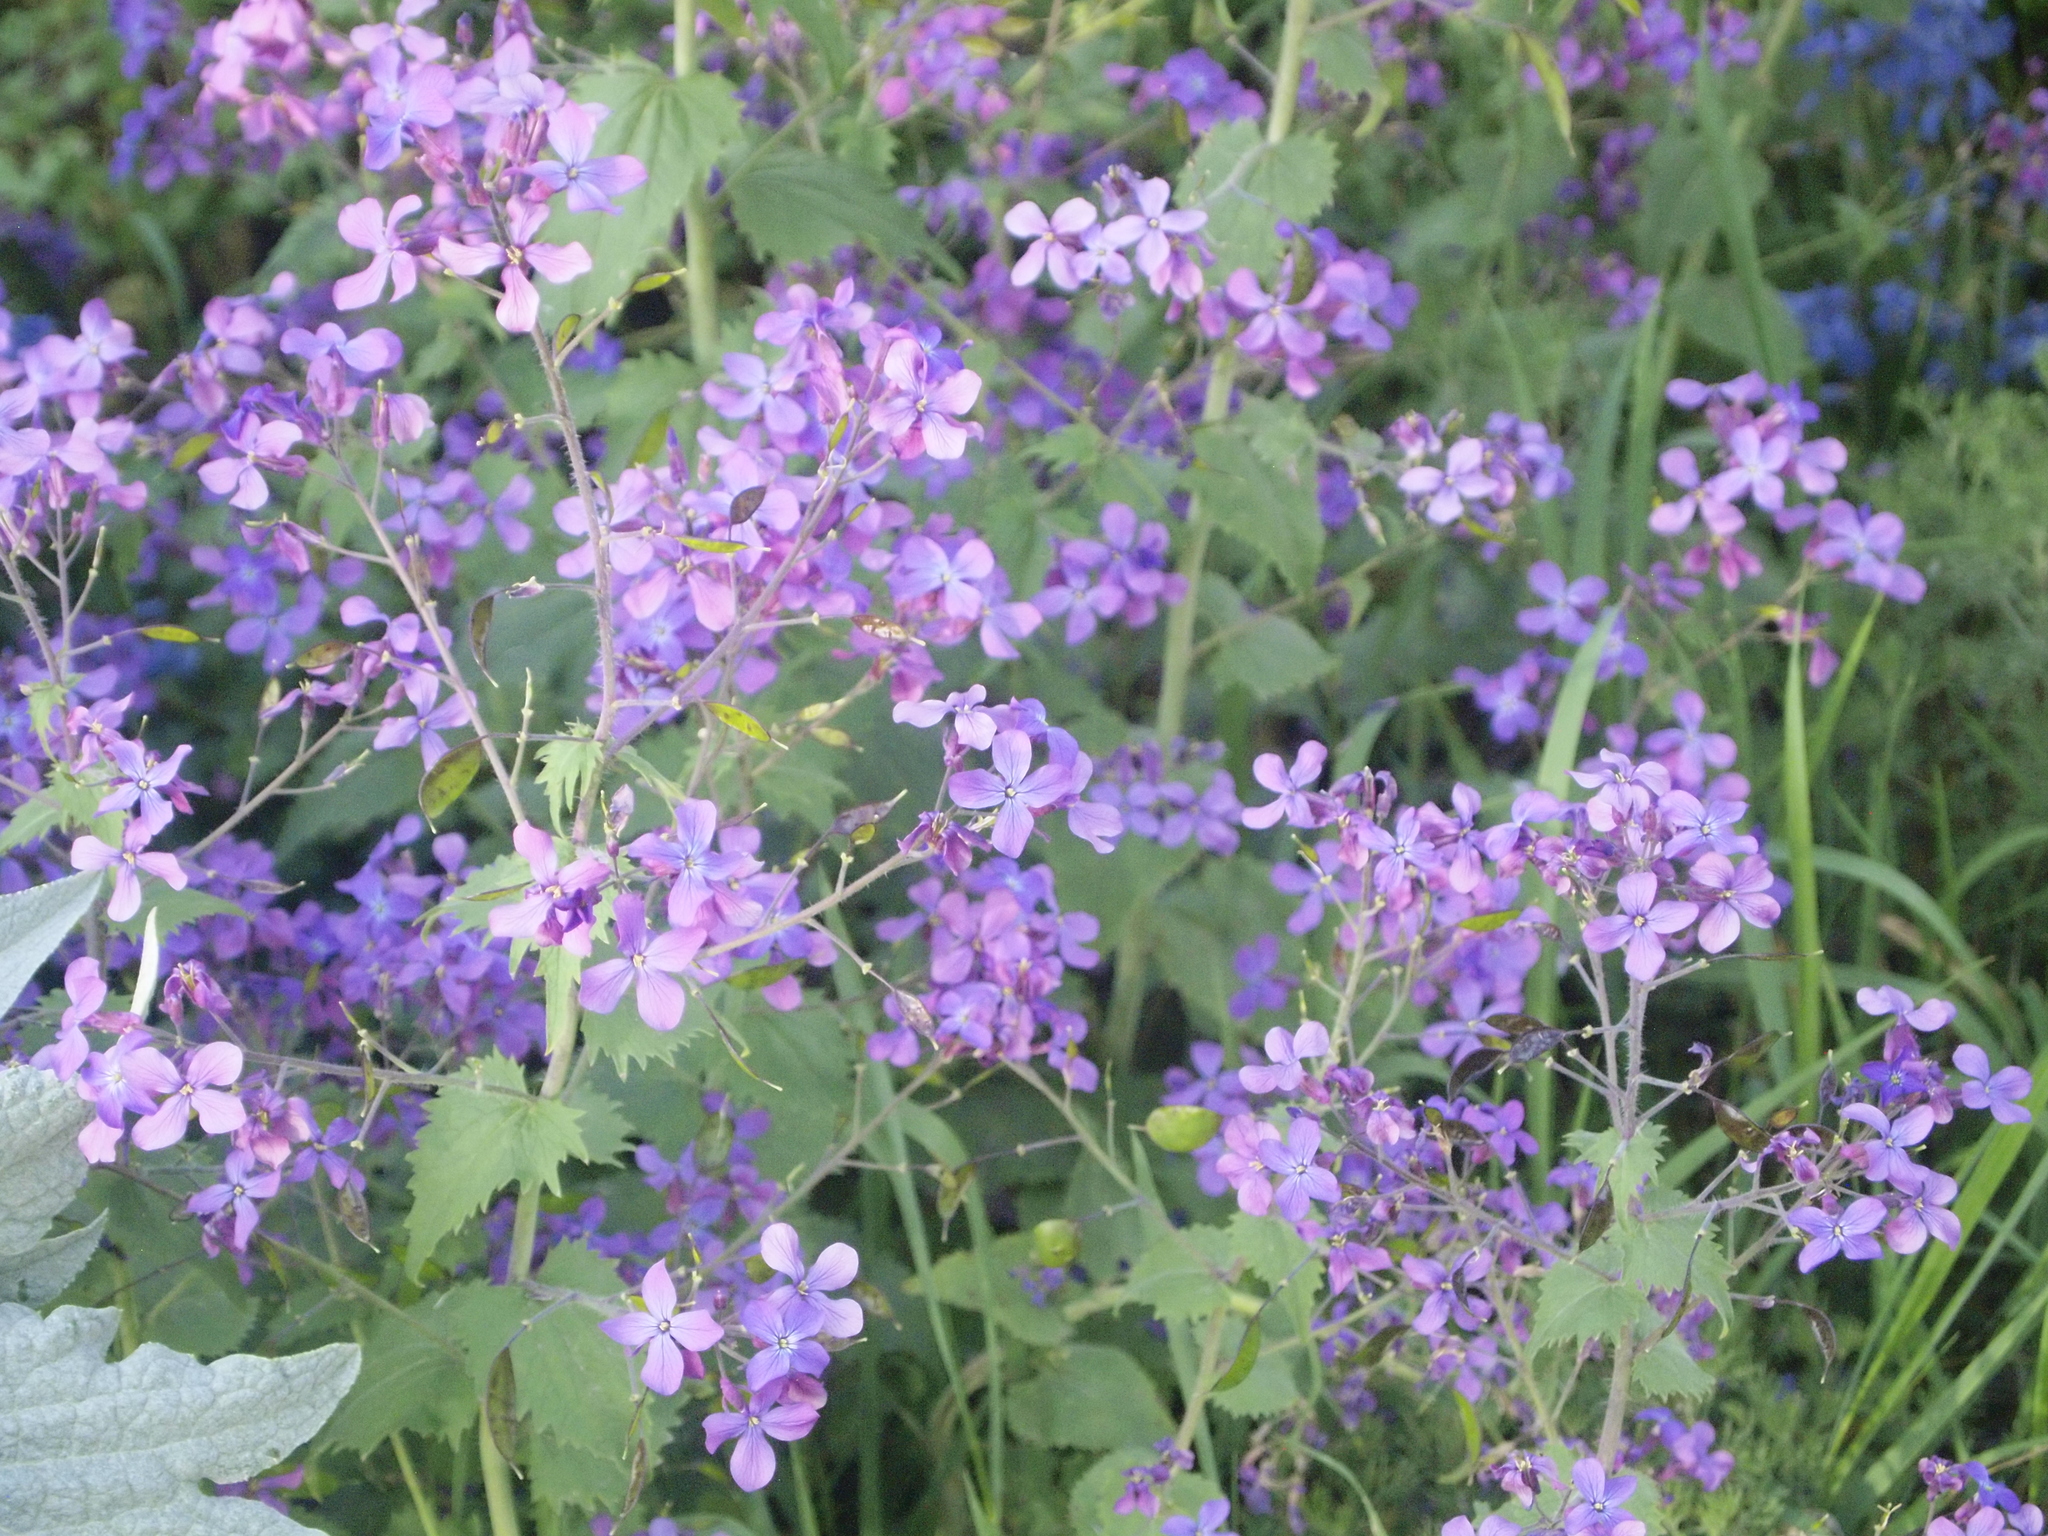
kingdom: Plantae
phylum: Tracheophyta
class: Magnoliopsida
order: Brassicales
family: Brassicaceae
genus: Lunaria
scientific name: Lunaria annua
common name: Honesty
